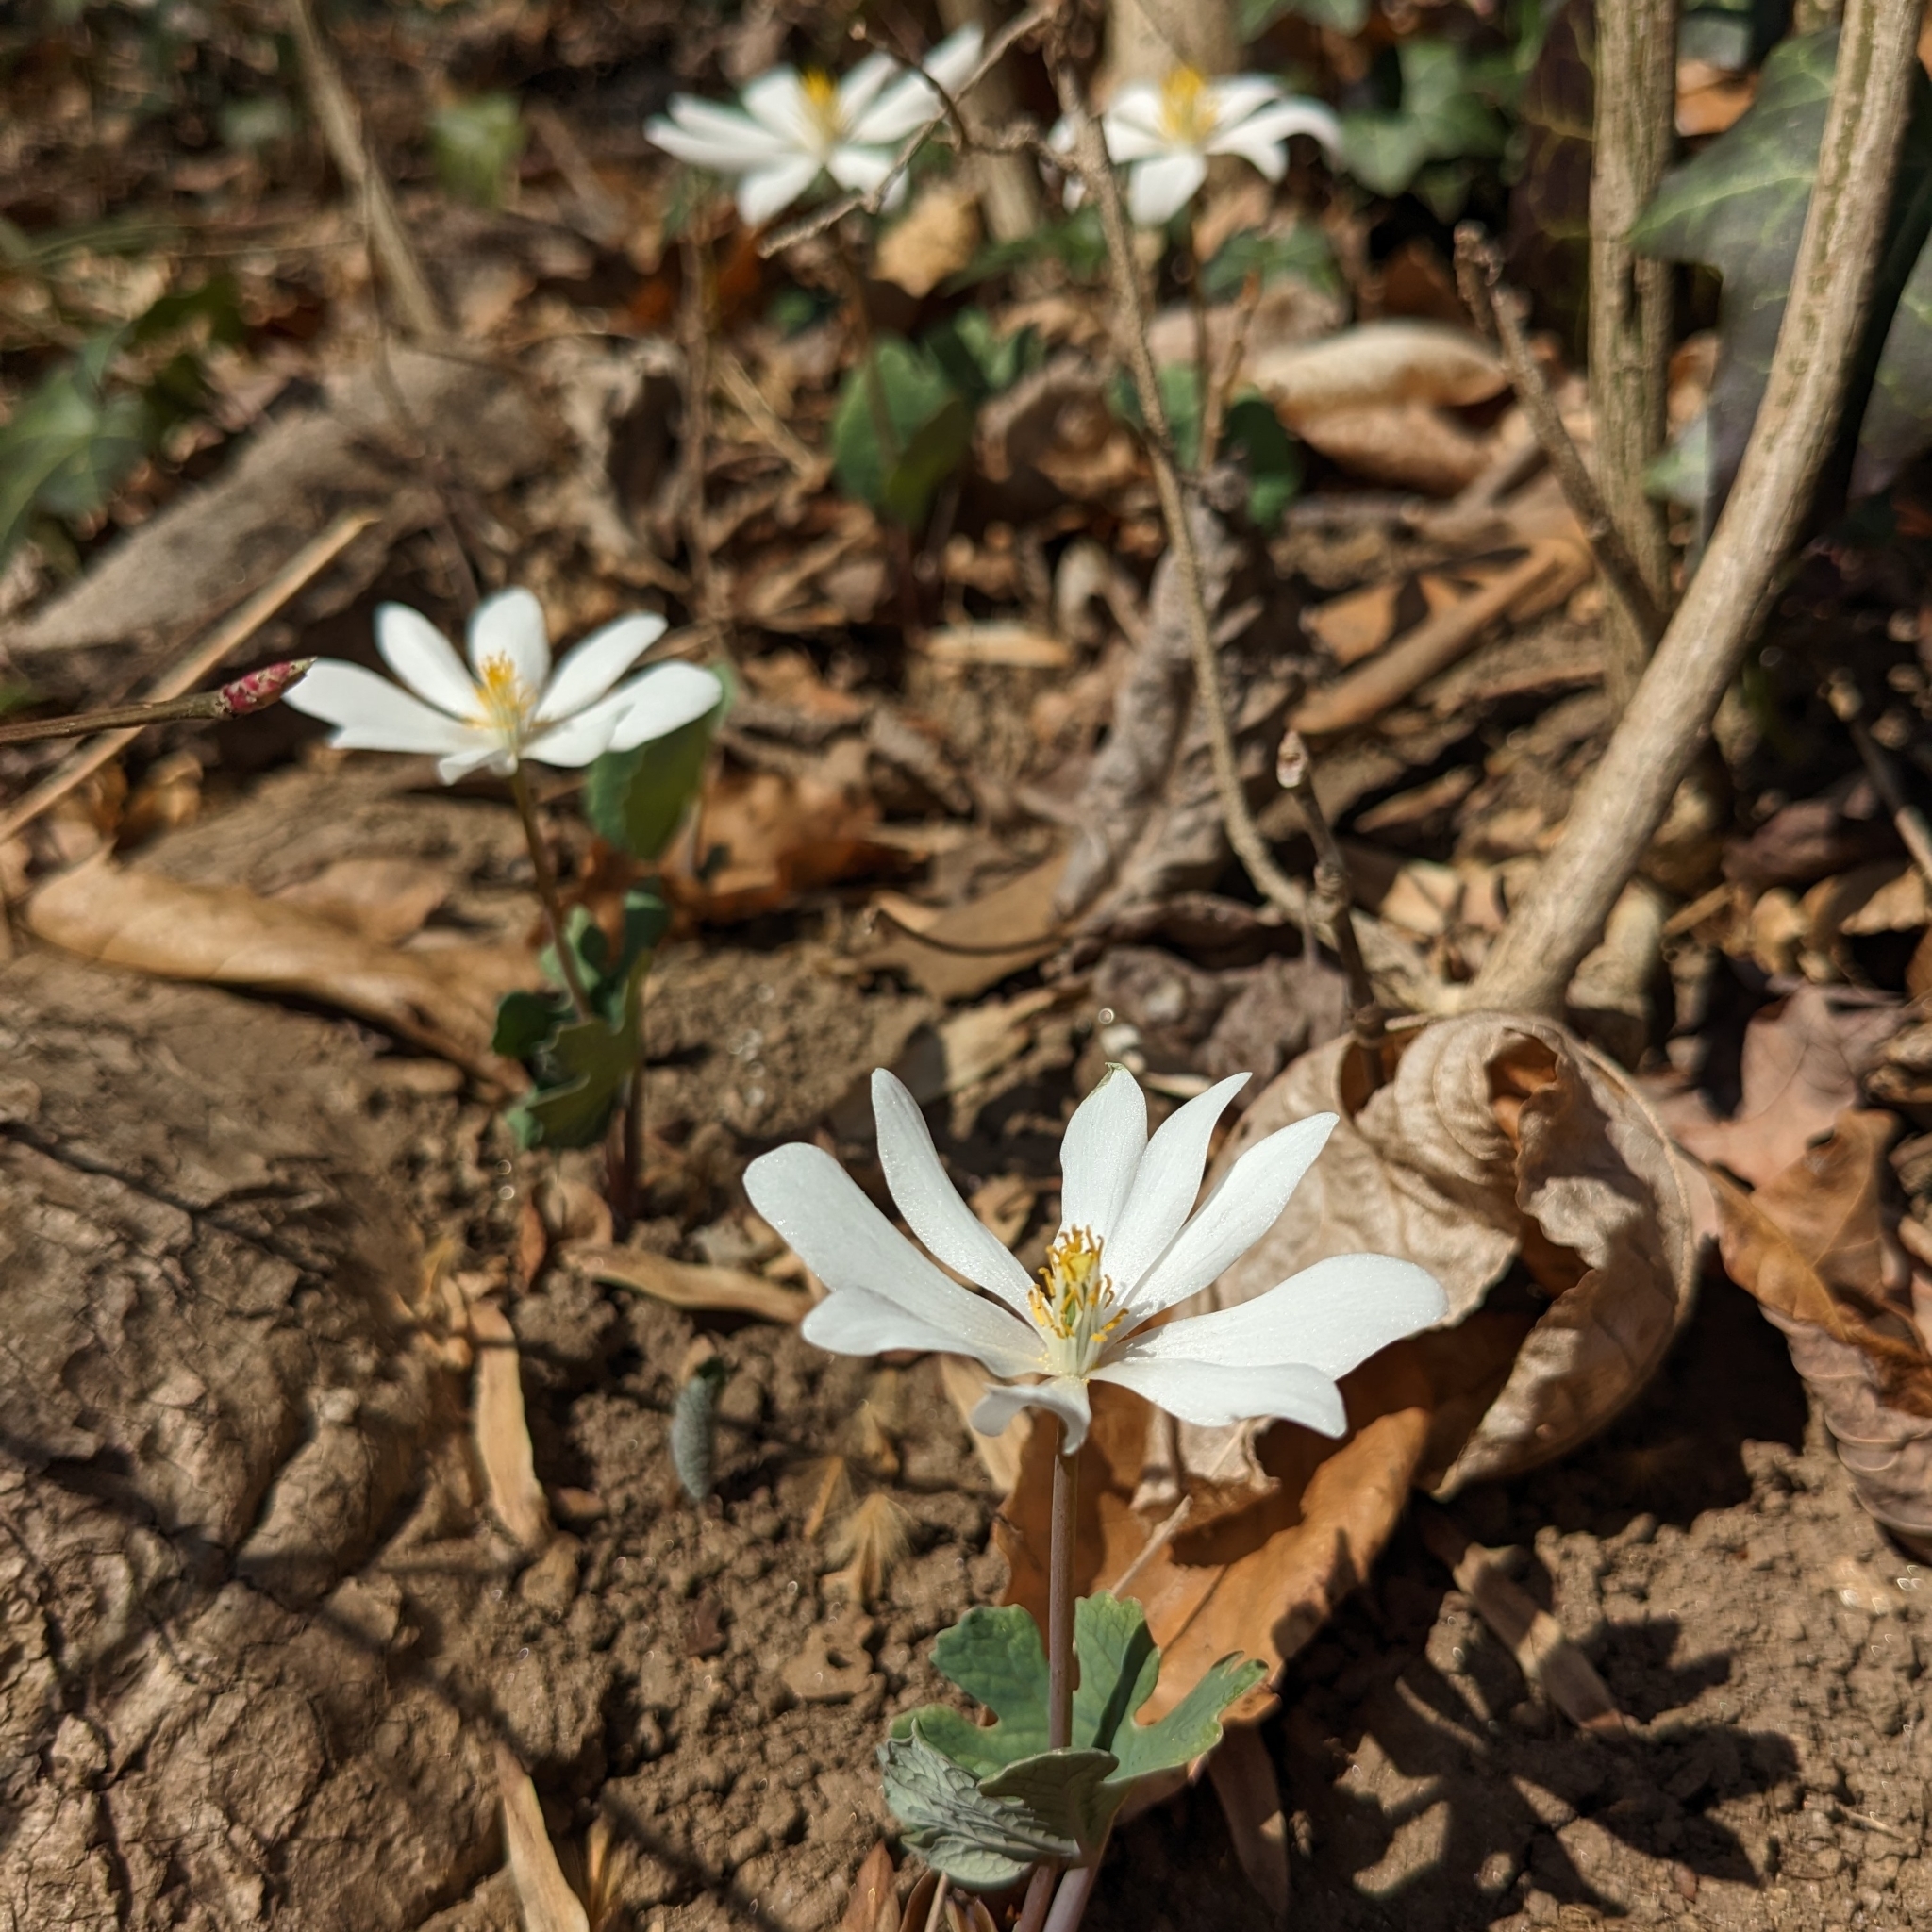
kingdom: Plantae
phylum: Tracheophyta
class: Magnoliopsida
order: Ranunculales
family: Papaveraceae
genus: Sanguinaria
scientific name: Sanguinaria canadensis
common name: Bloodroot
